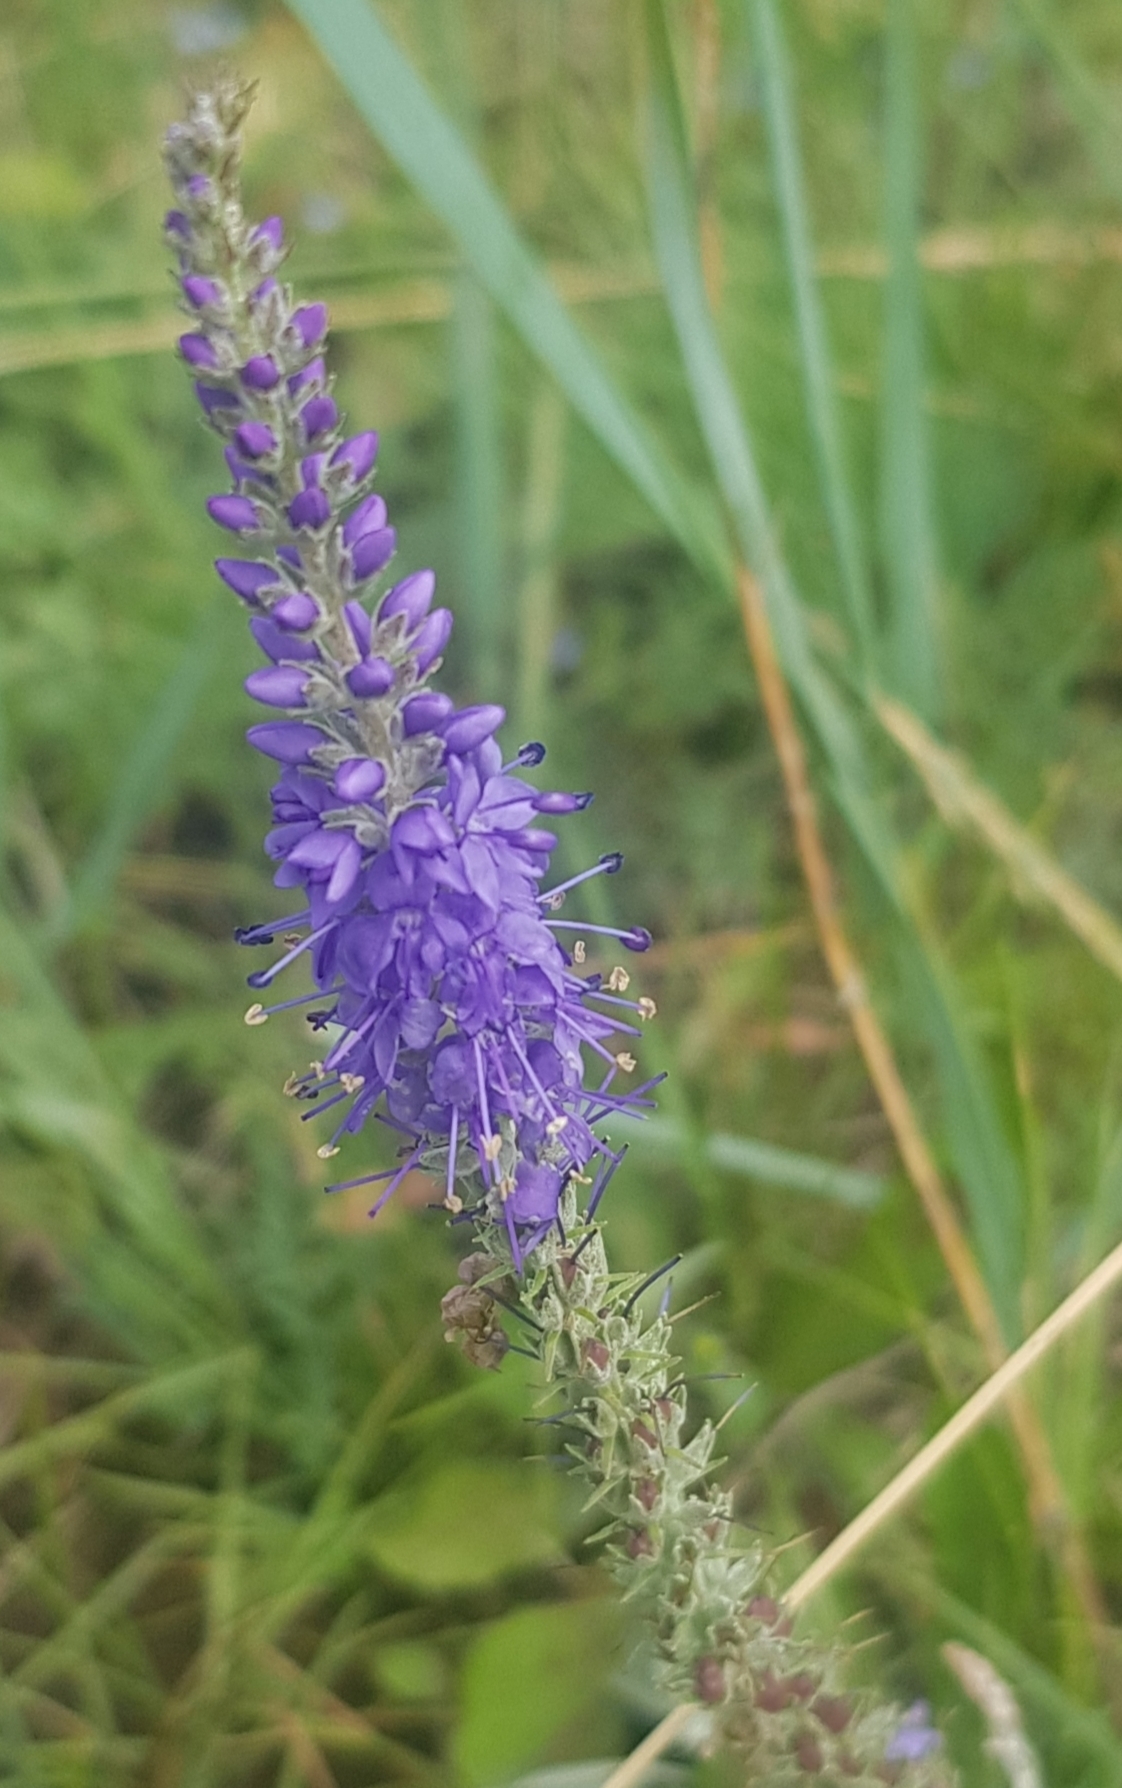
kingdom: Plantae
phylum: Tracheophyta
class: Magnoliopsida
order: Lamiales
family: Plantaginaceae
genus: Veronica
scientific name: Veronica incana
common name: Silver speedwell
